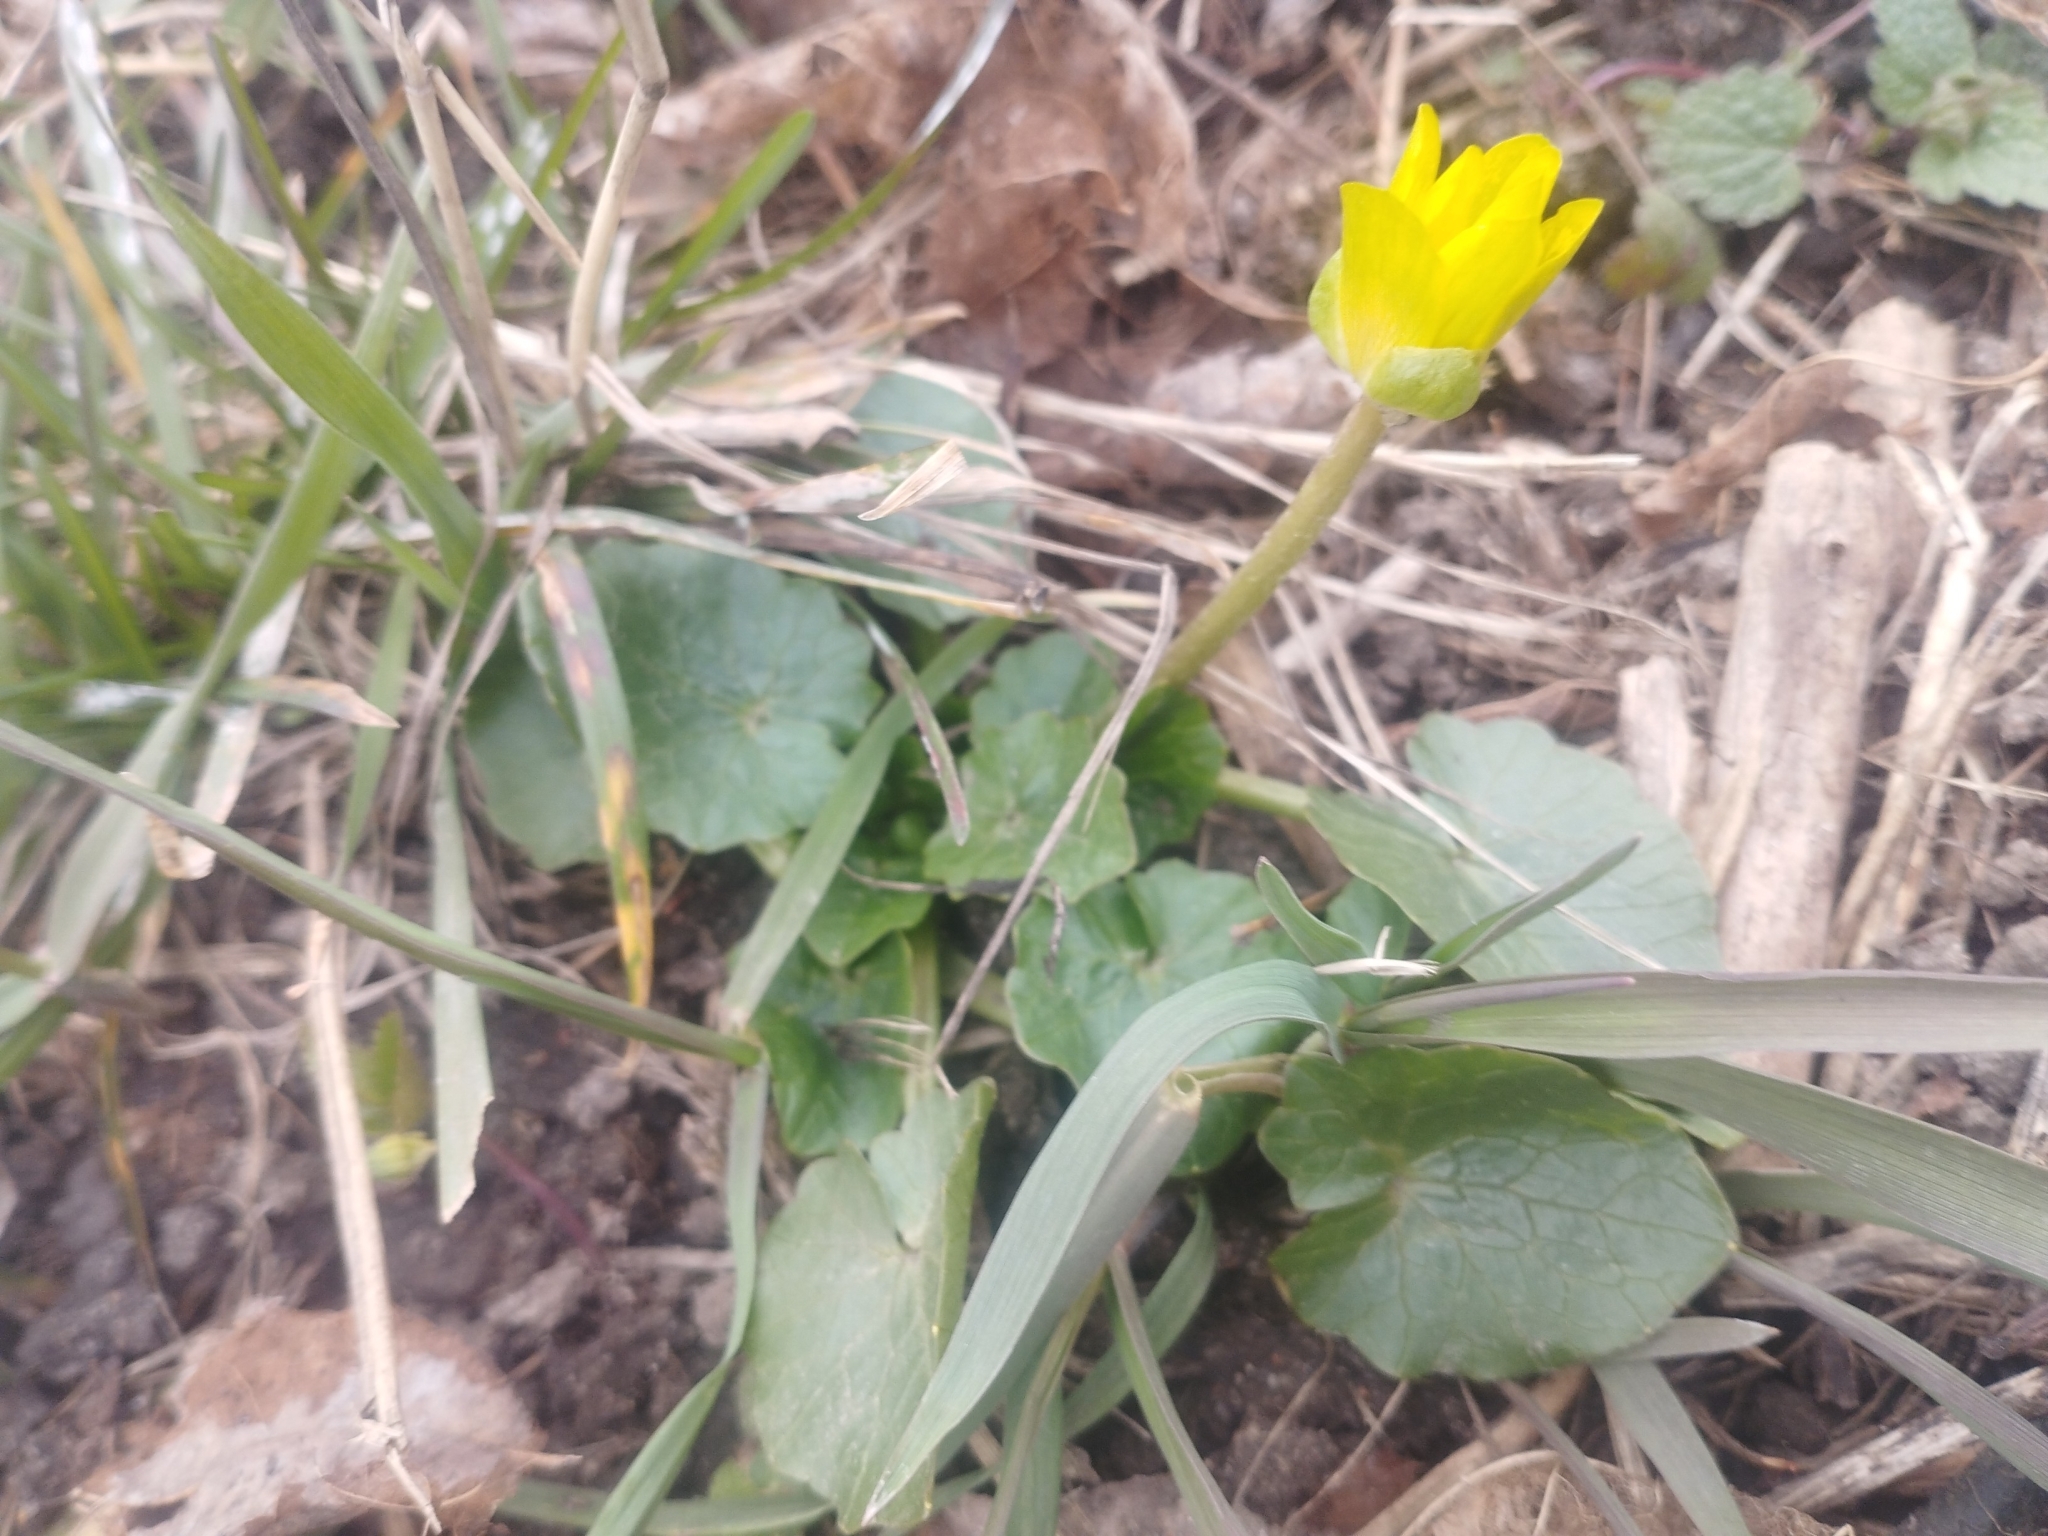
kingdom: Plantae
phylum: Tracheophyta
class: Magnoliopsida
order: Ranunculales
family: Ranunculaceae
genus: Ficaria
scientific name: Ficaria verna
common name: Lesser celandine
